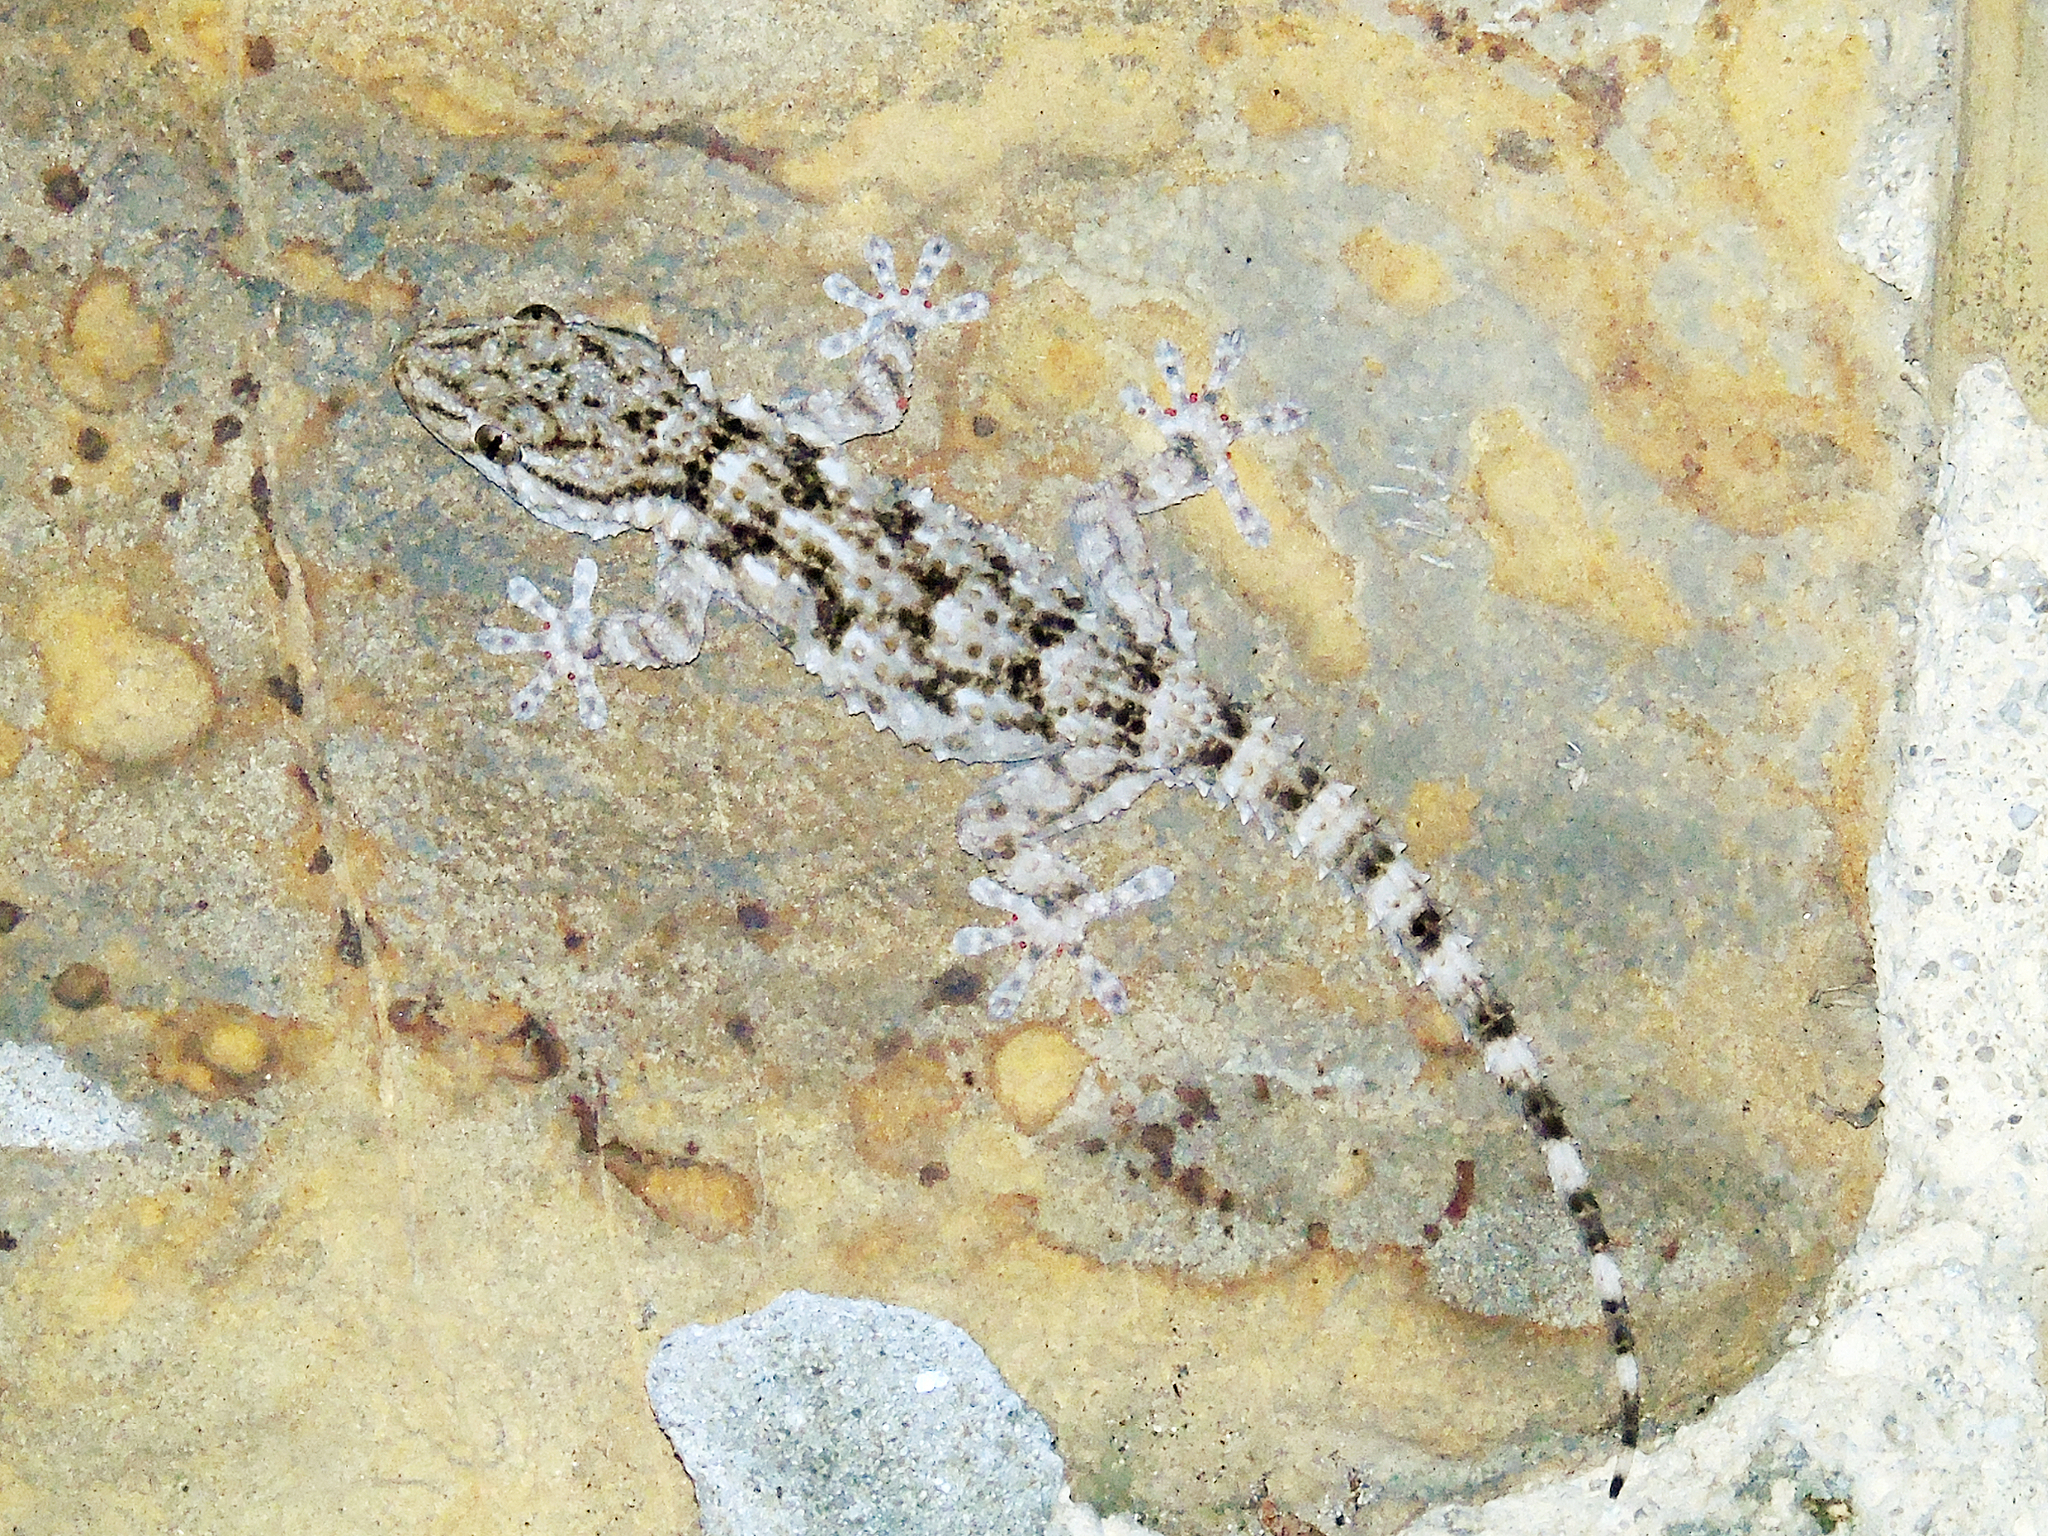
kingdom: Animalia
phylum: Chordata
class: Squamata
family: Phyllodactylidae
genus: Tarentola
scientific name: Tarentola mauritanica
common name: Moorish gecko
